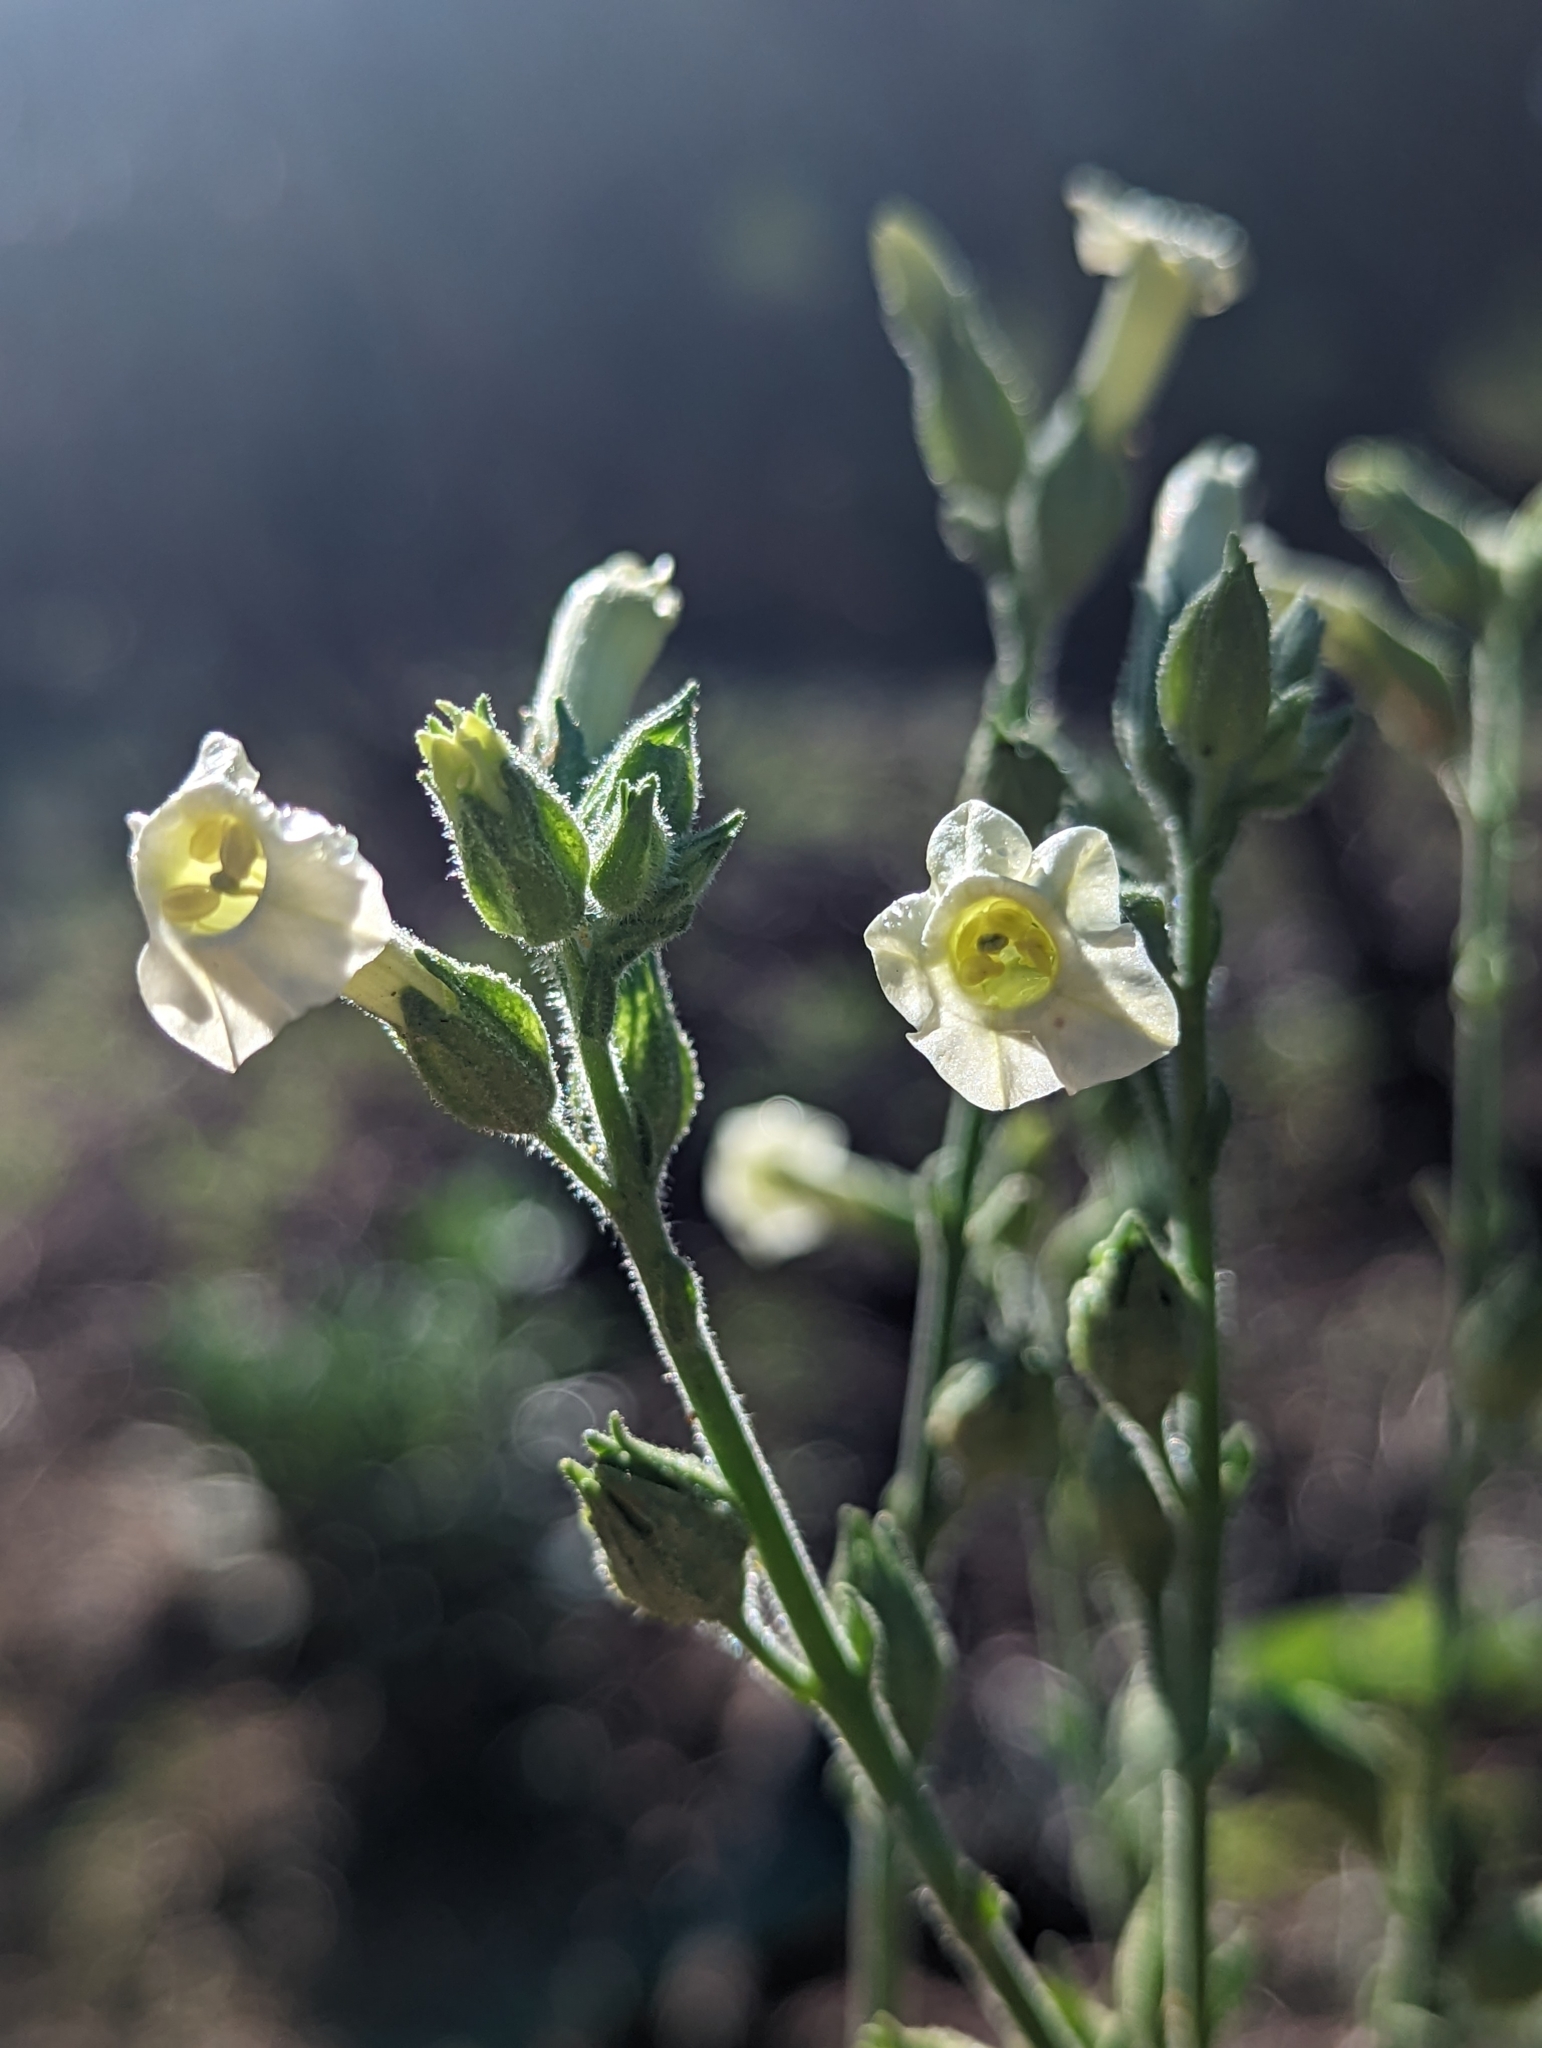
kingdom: Plantae
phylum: Tracheophyta
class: Magnoliopsida
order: Solanales
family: Solanaceae
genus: Nicotiana
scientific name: Nicotiana obtusifolia
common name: Desert tobacco
